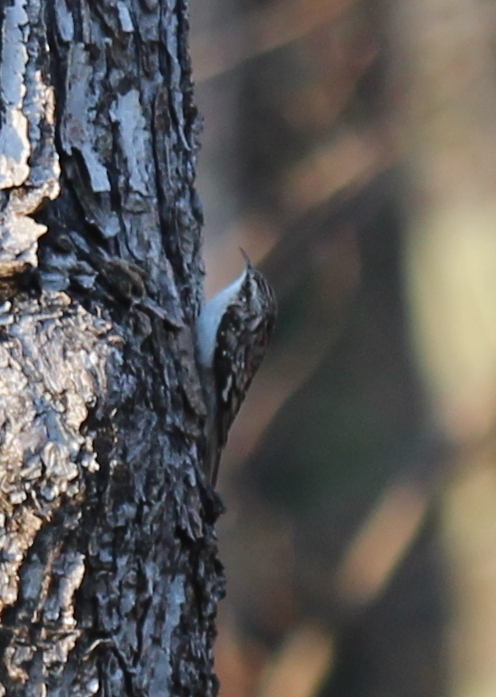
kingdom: Animalia
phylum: Chordata
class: Aves
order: Passeriformes
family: Certhiidae
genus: Certhia
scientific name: Certhia americana
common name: Brown creeper
